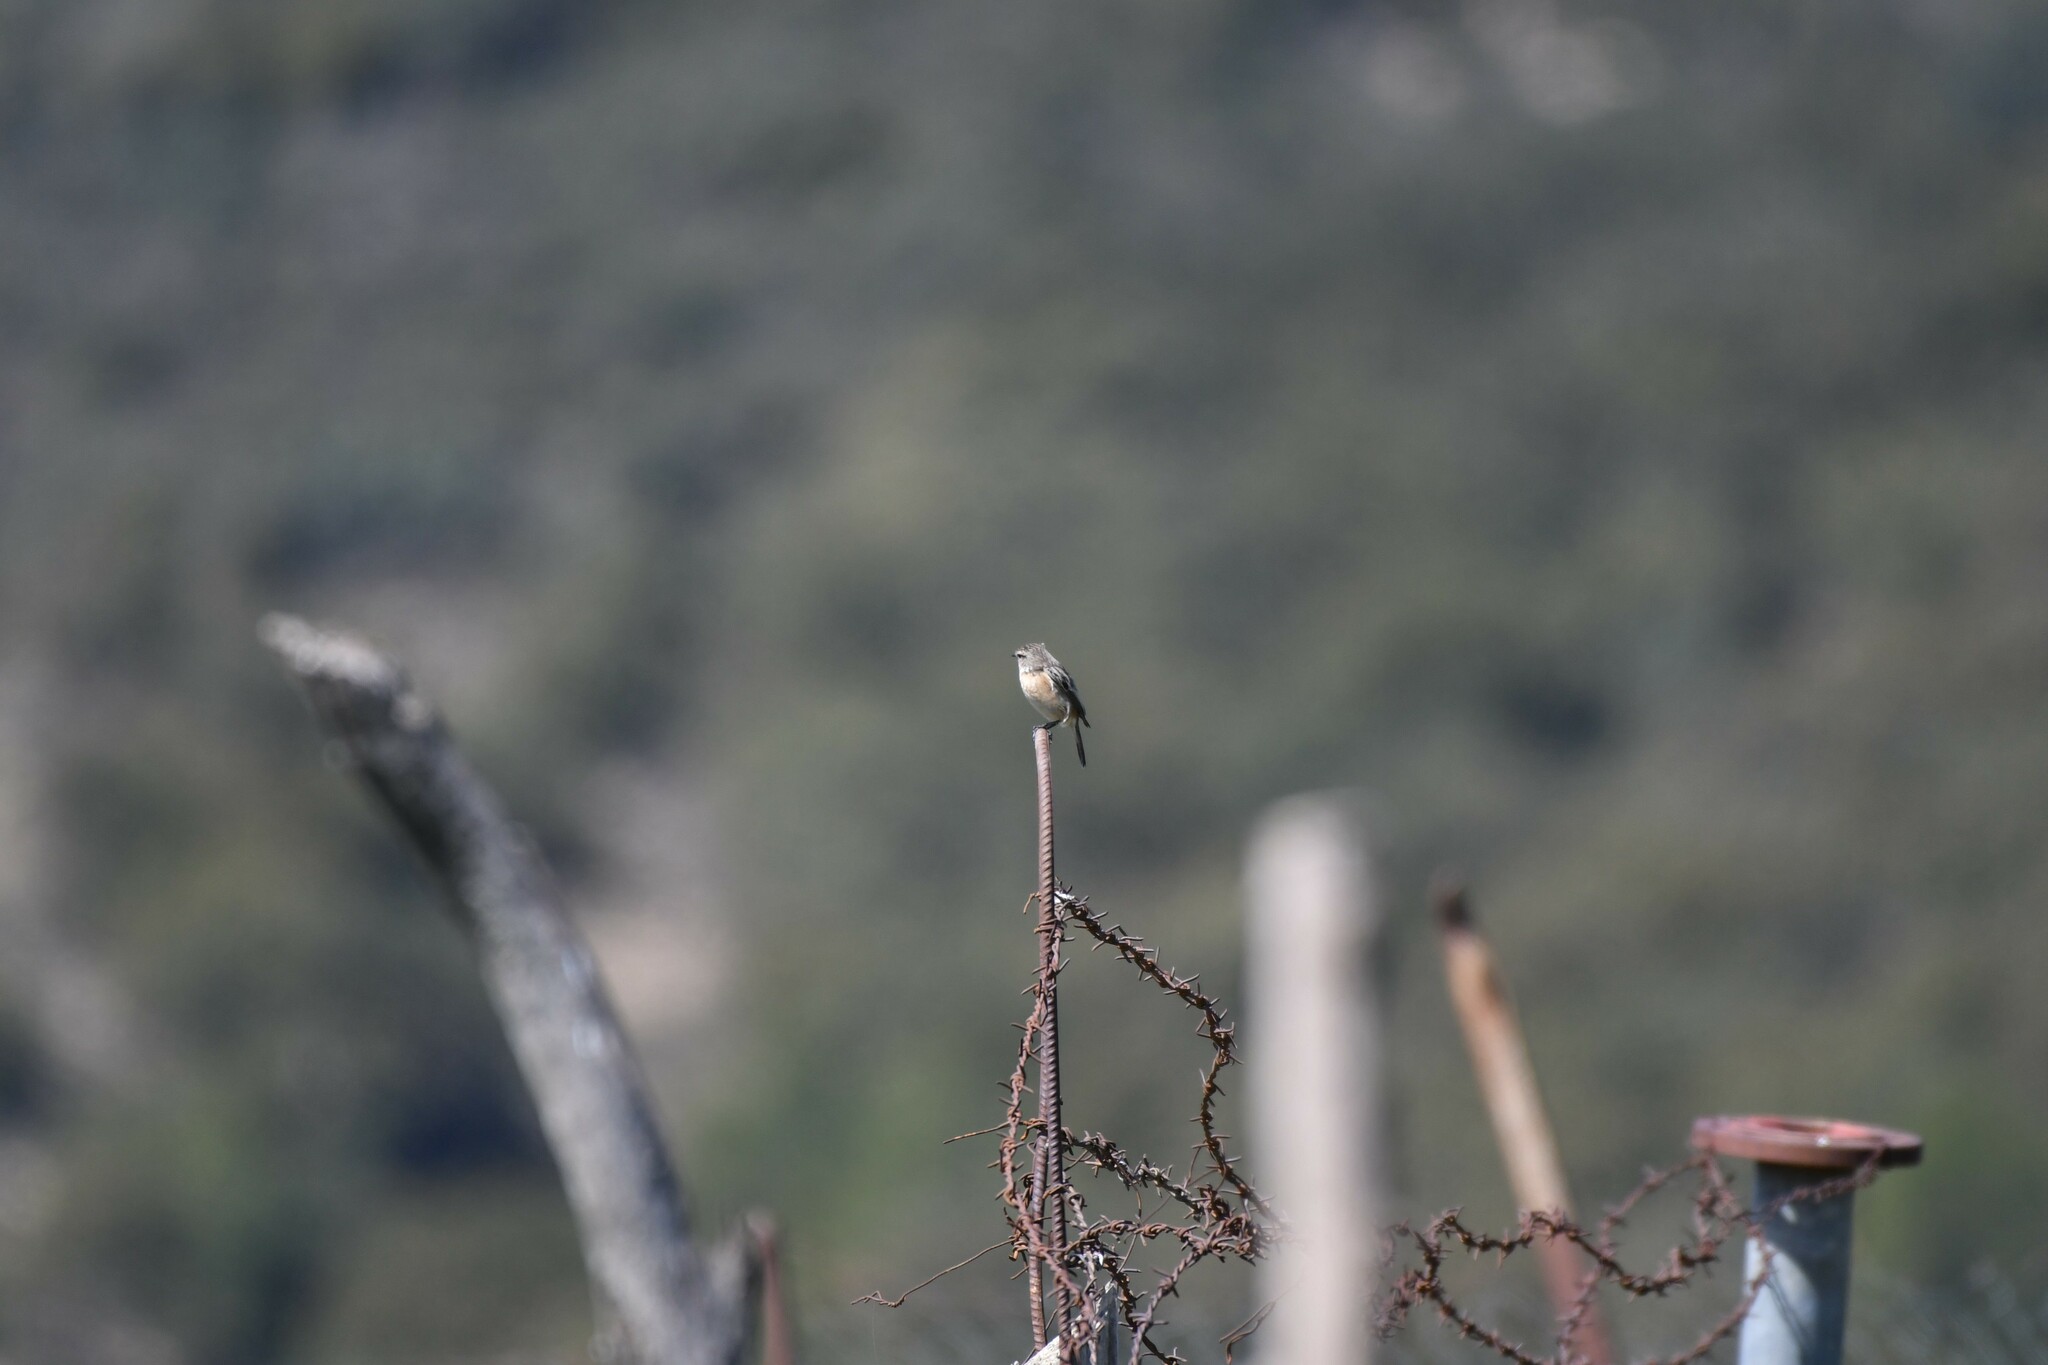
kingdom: Animalia
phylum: Chordata
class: Aves
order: Passeriformes
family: Muscicapidae
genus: Saxicola
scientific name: Saxicola rubicola
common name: European stonechat
